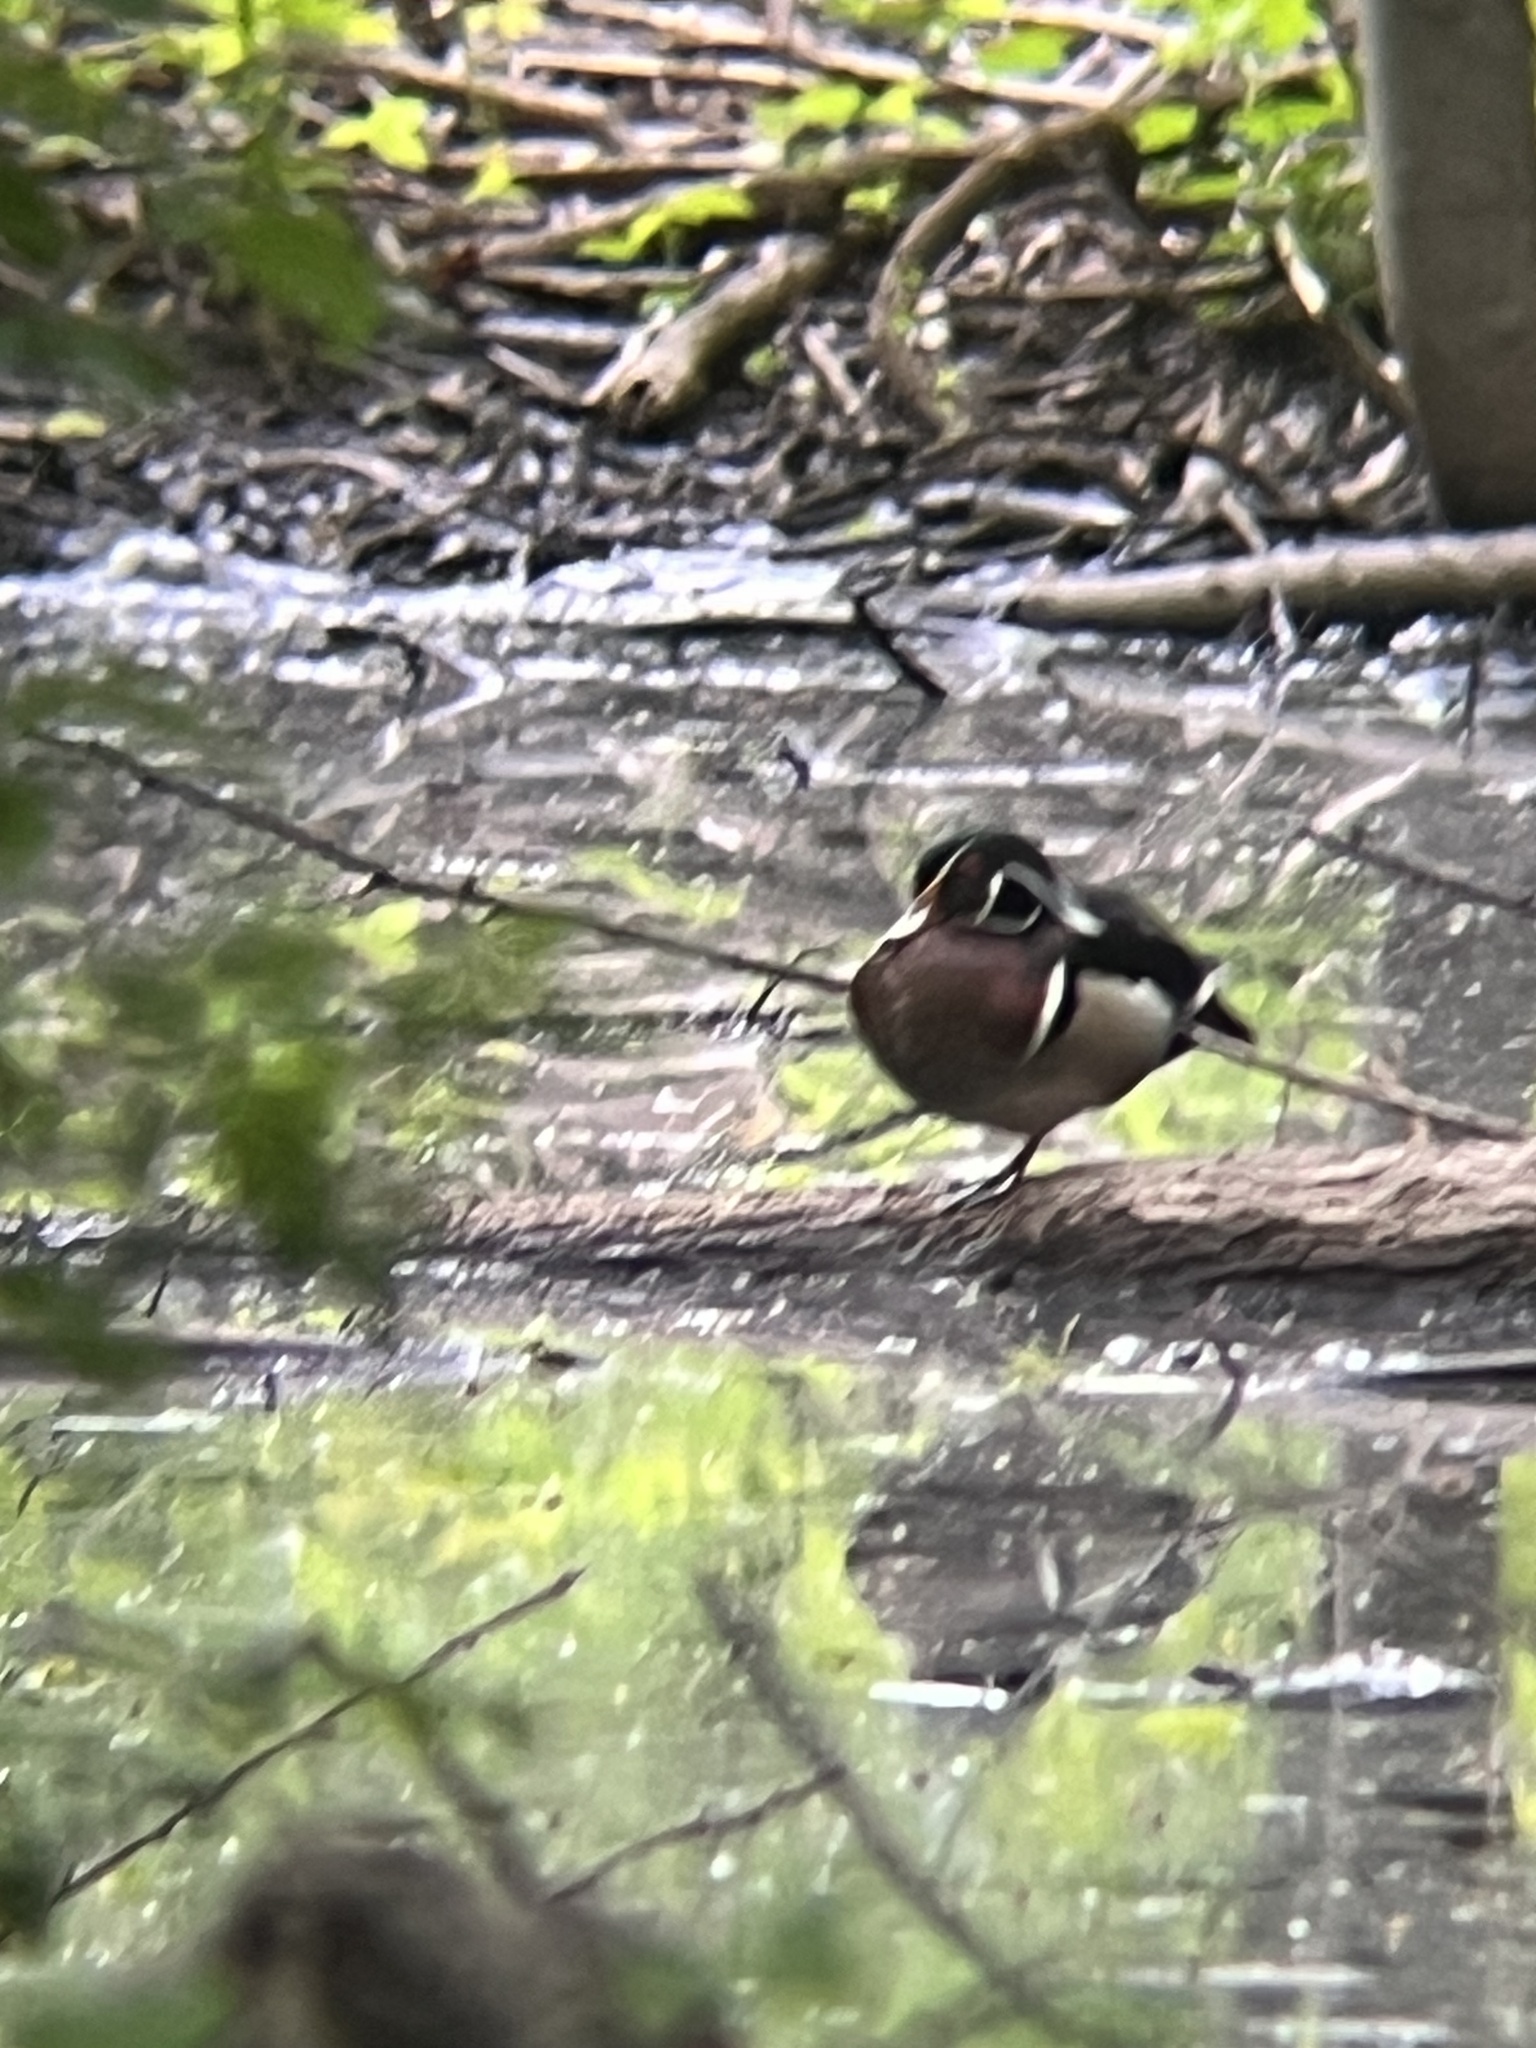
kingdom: Animalia
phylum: Chordata
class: Aves
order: Anseriformes
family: Anatidae
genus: Aix
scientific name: Aix sponsa
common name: Wood duck
